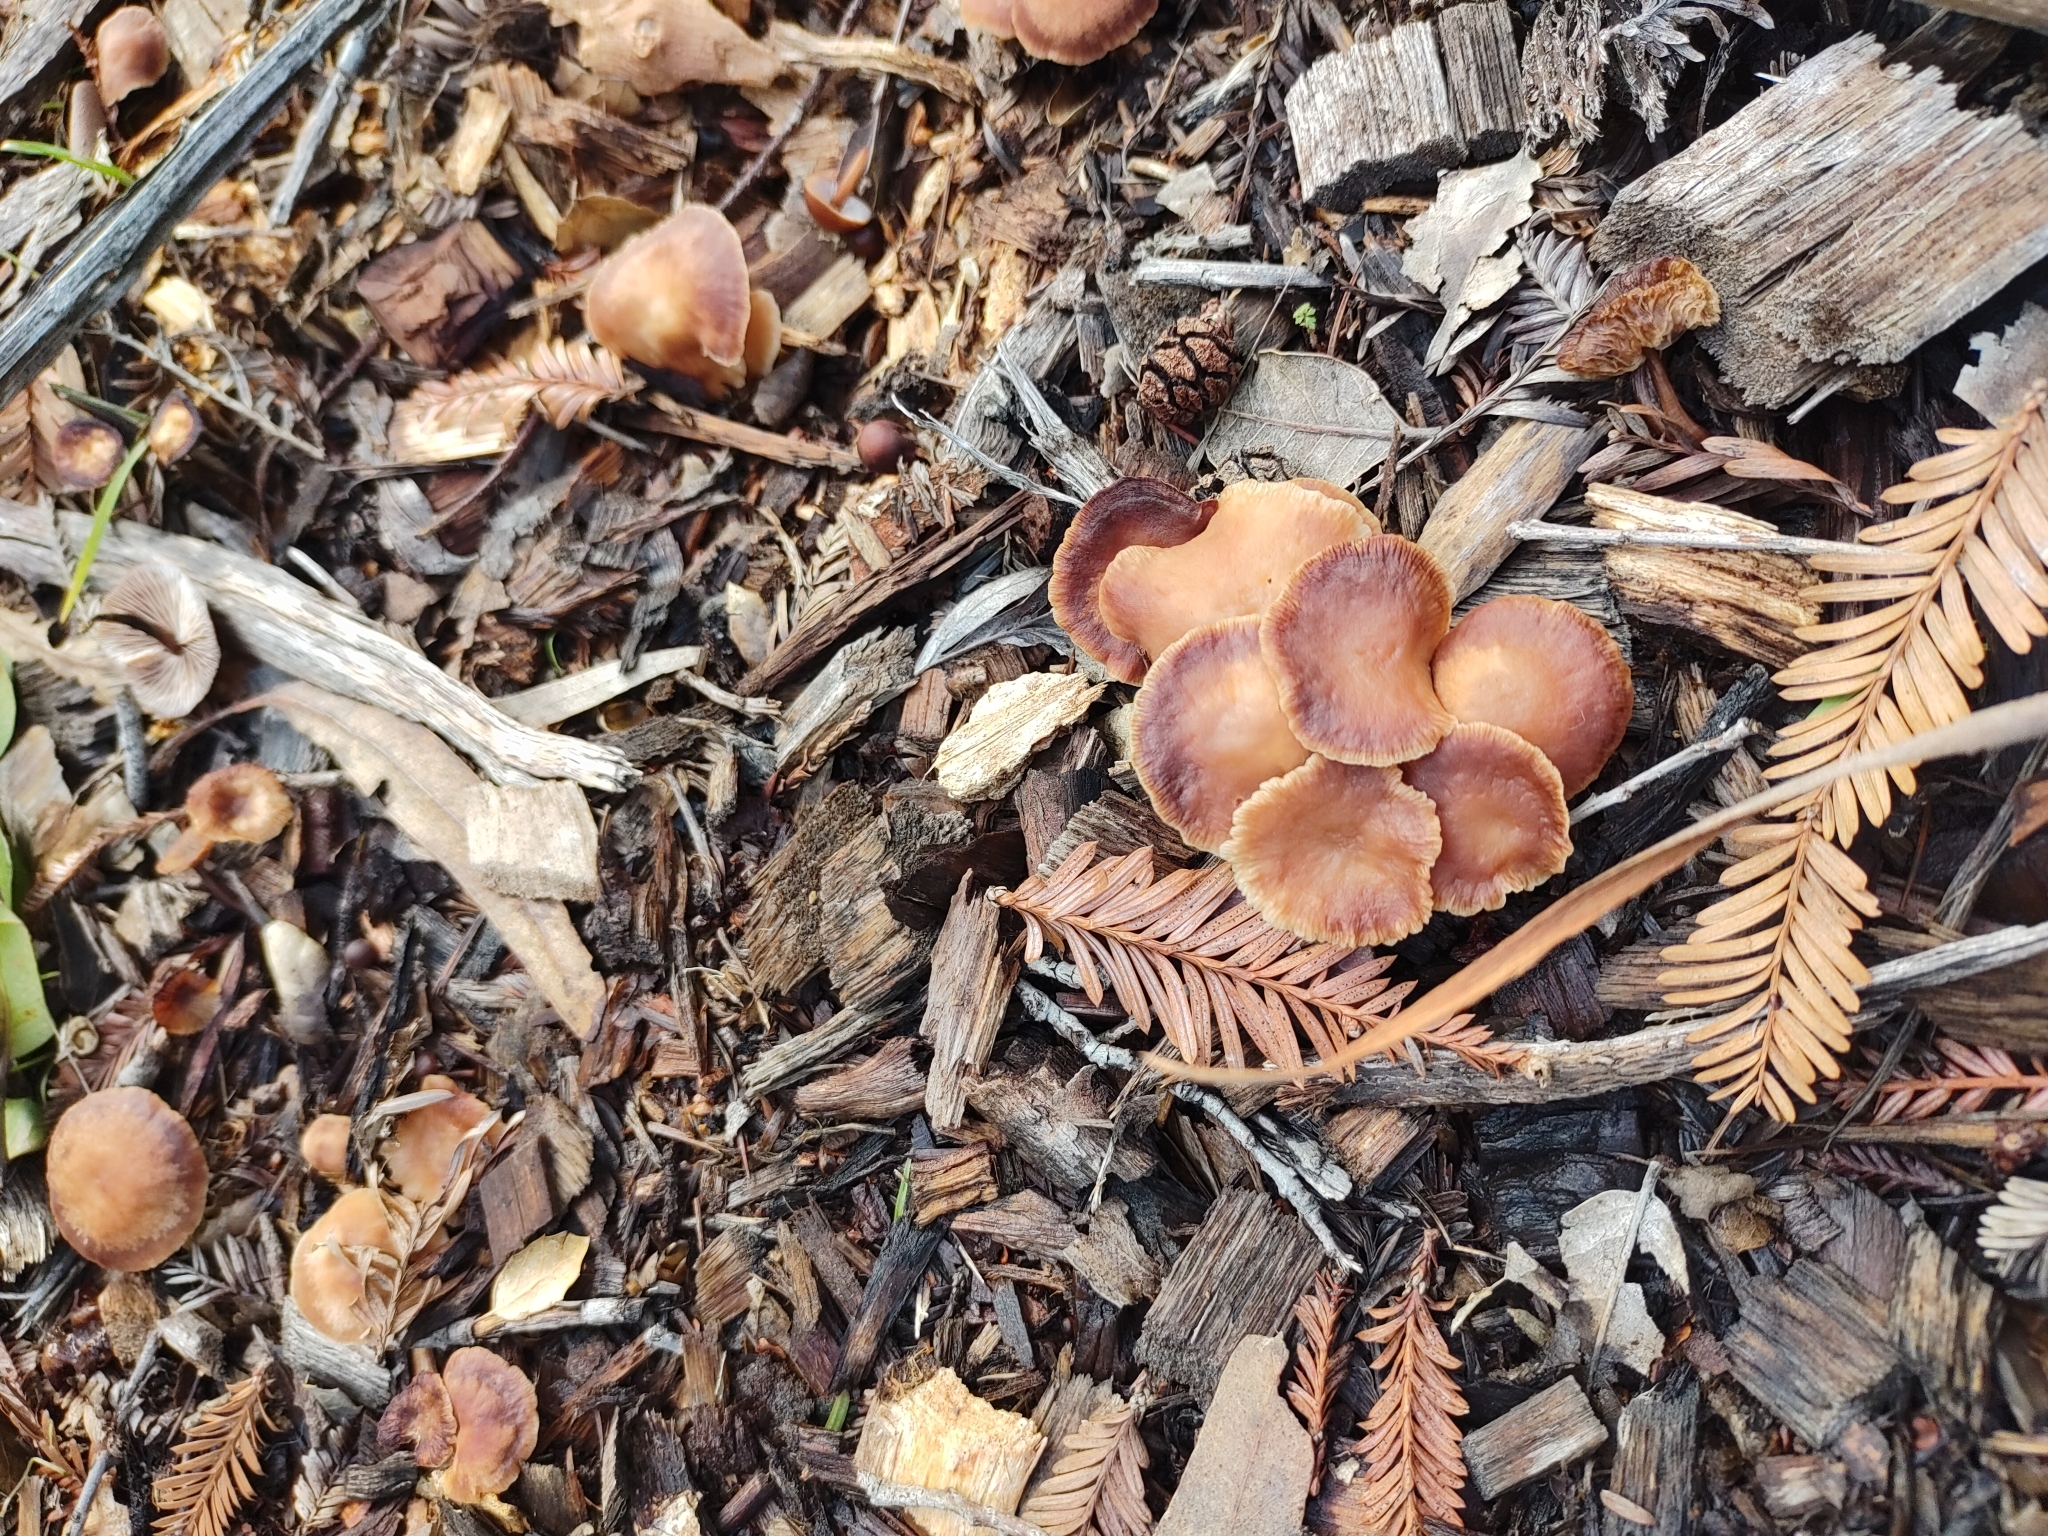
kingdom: Fungi
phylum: Basidiomycota
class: Agaricomycetes
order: Agaricales
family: Omphalotaceae
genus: Gymnopus
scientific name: Gymnopus brassicolens
